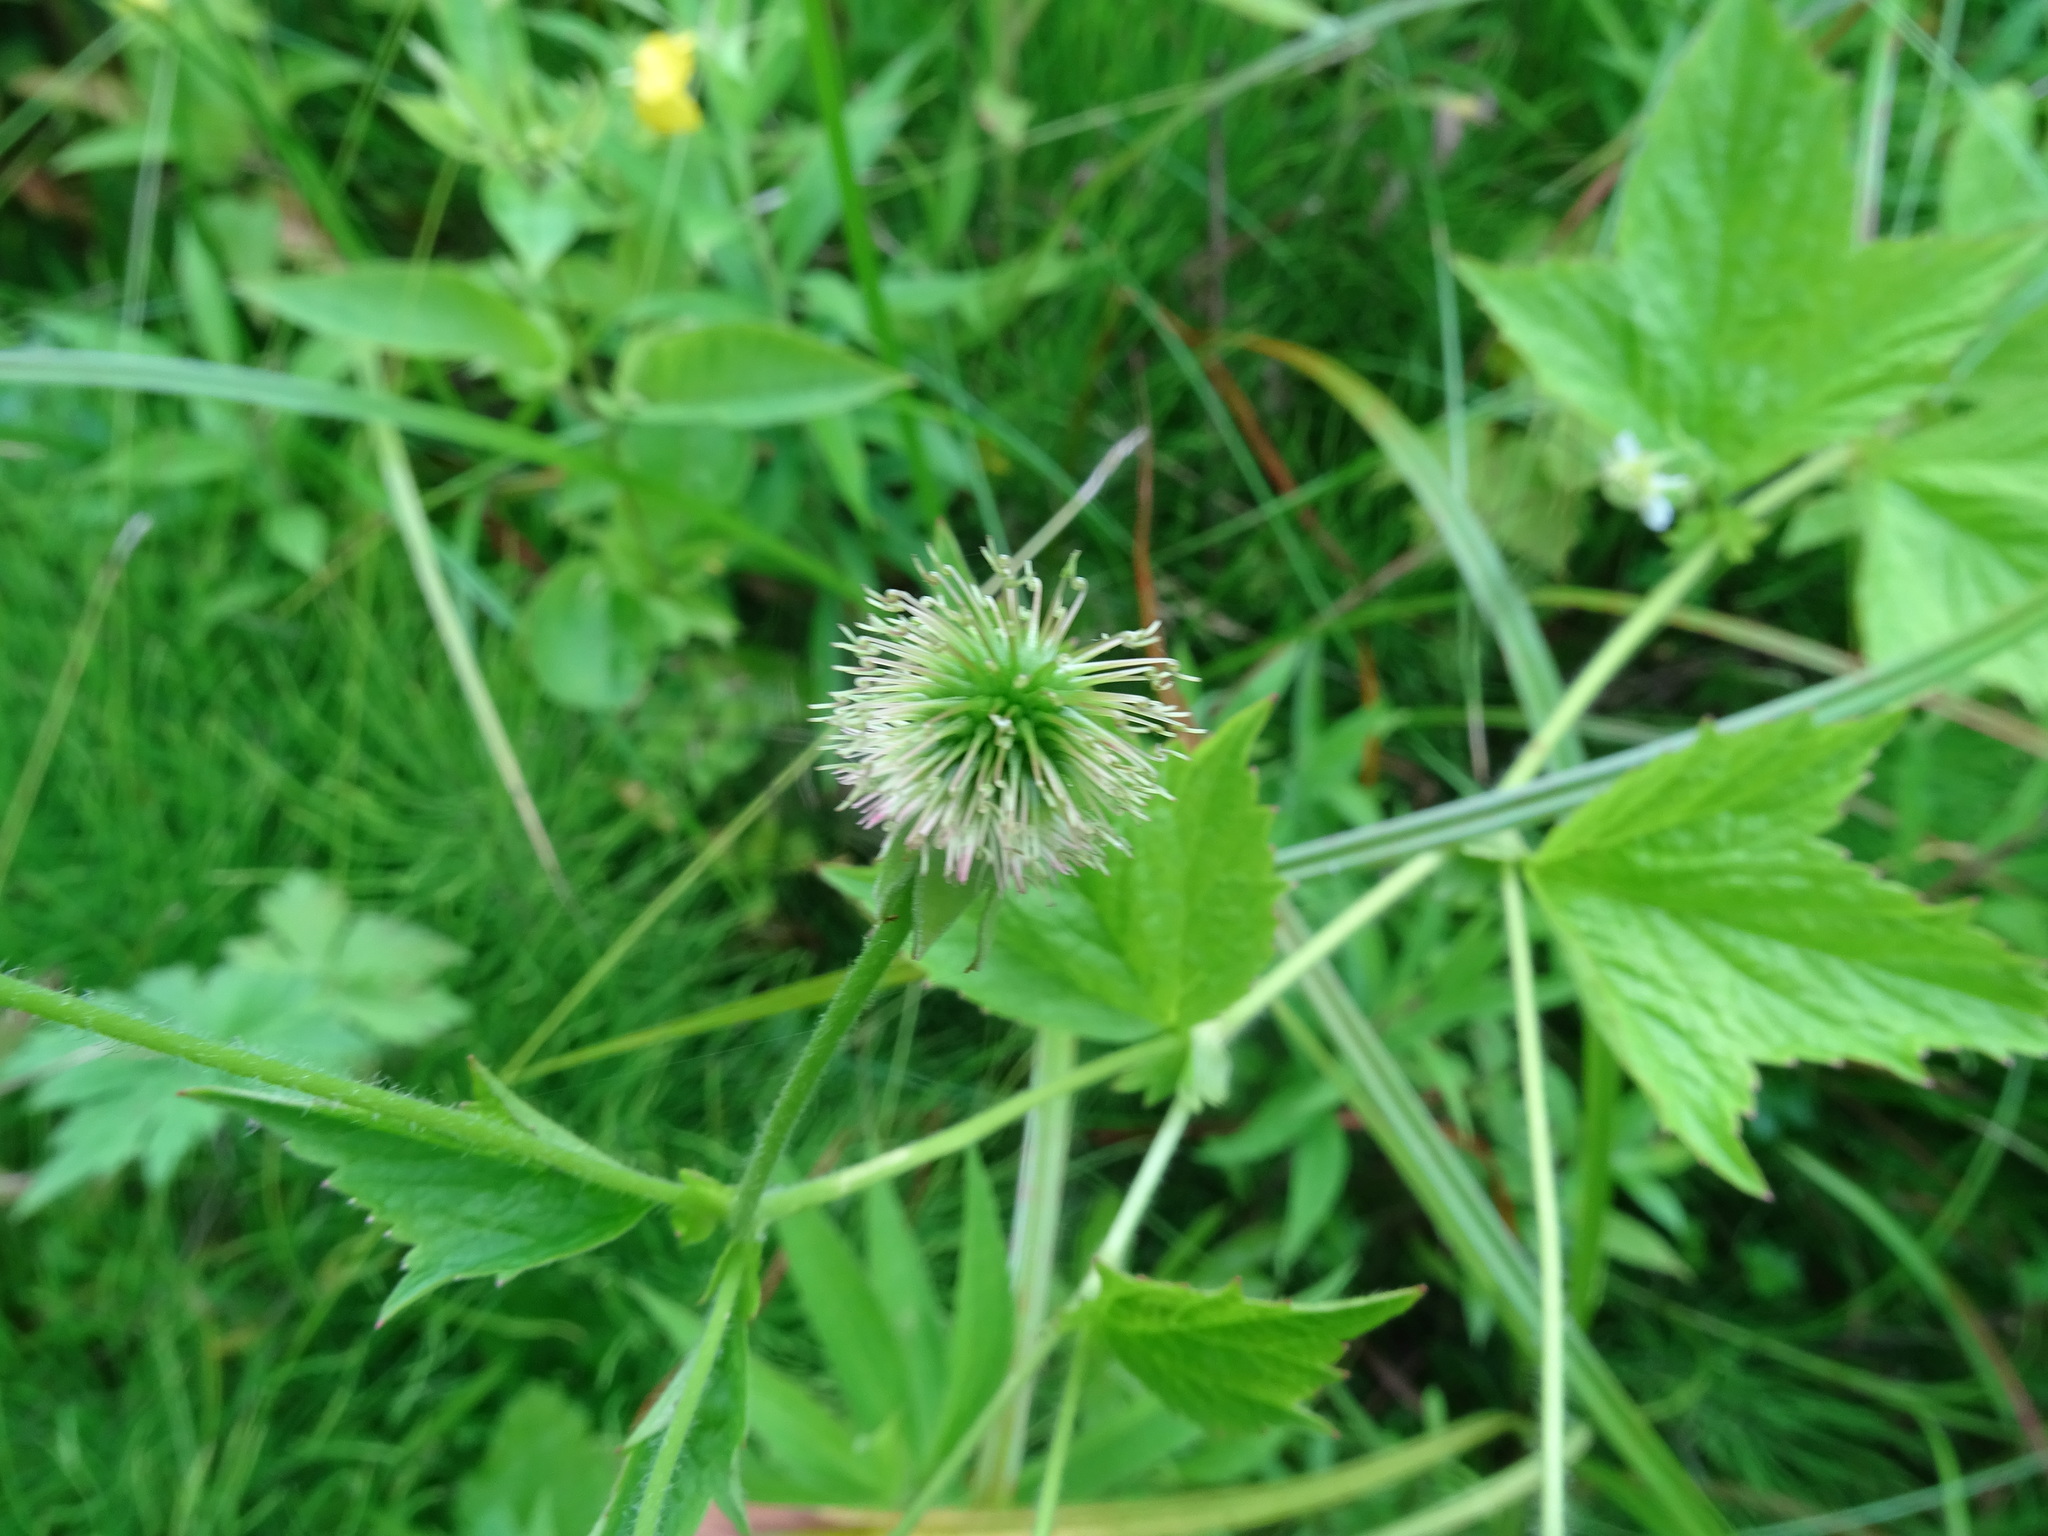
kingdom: Plantae
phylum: Tracheophyta
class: Magnoliopsida
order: Rosales
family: Rosaceae
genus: Geum
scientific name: Geum cortlandicum
